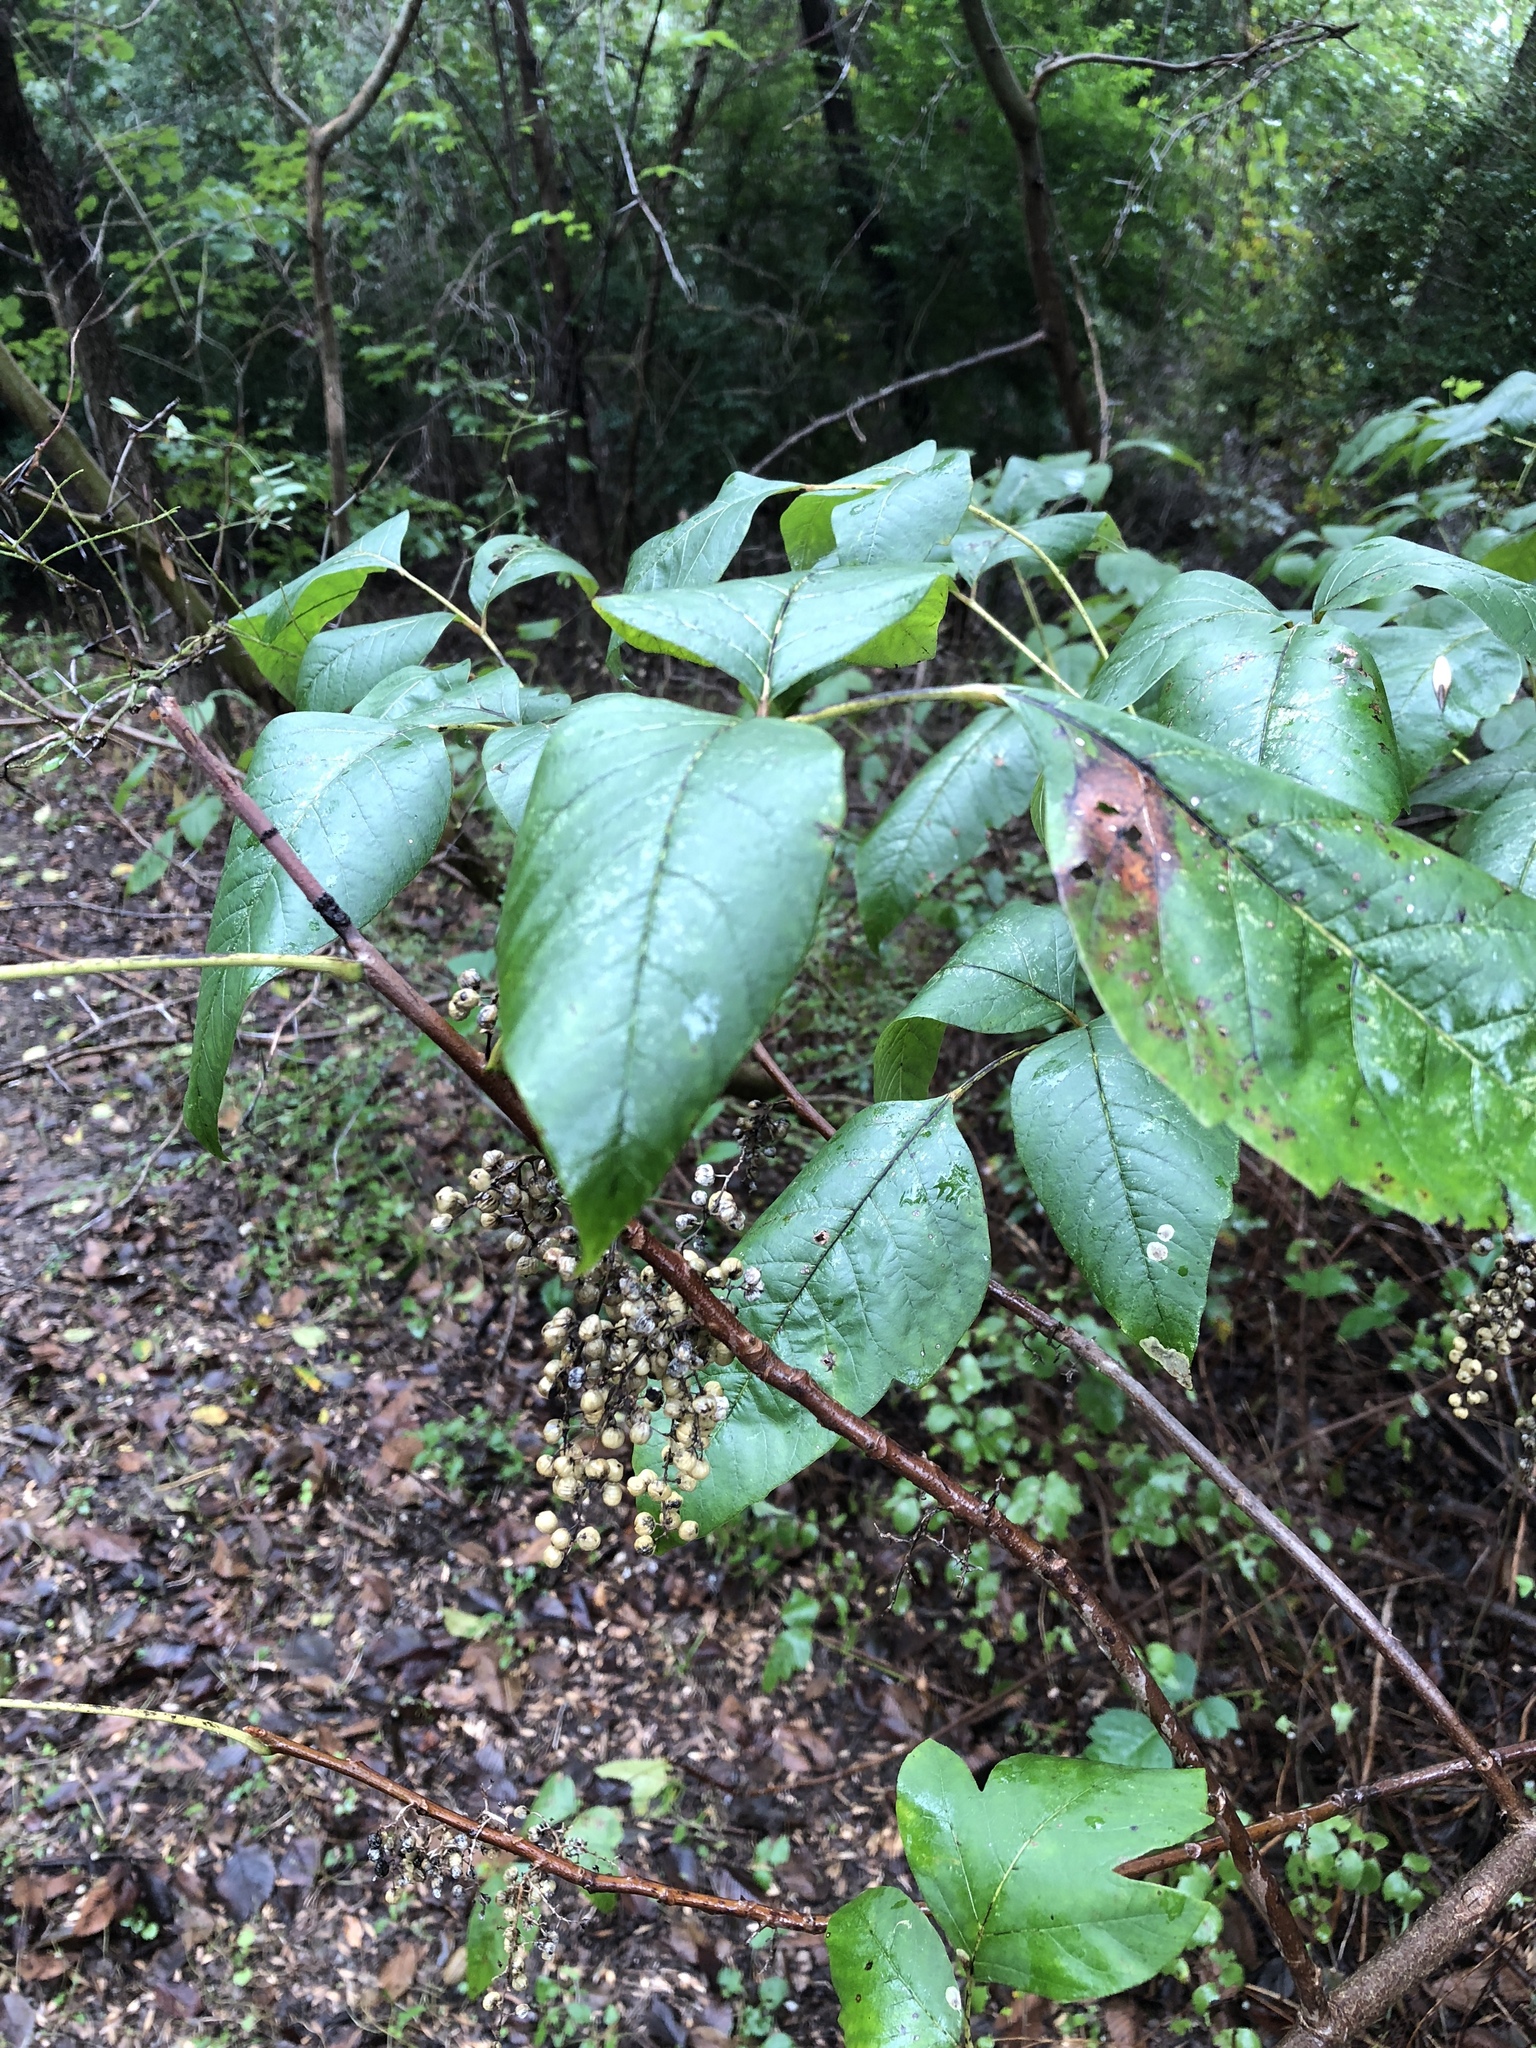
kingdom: Plantae
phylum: Tracheophyta
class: Magnoliopsida
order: Sapindales
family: Anacardiaceae
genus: Toxicodendron
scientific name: Toxicodendron radicans
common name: Poison ivy
